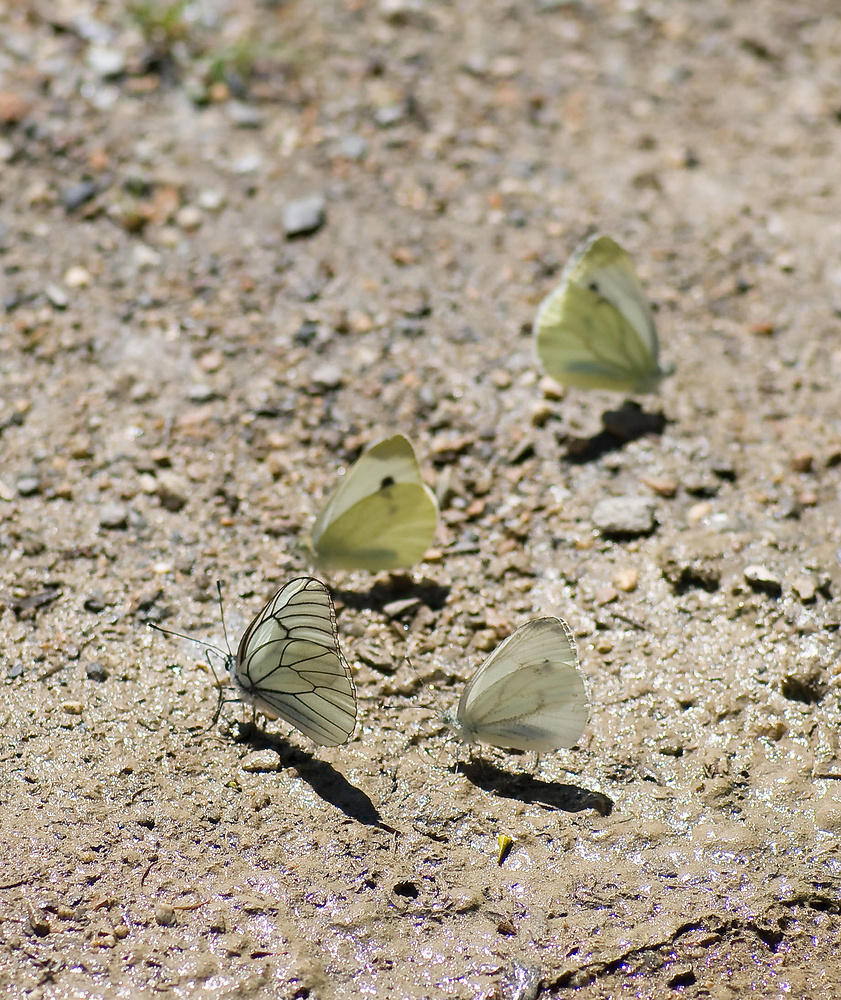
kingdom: Animalia
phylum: Arthropoda
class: Insecta
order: Lepidoptera
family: Pieridae
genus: Aporia
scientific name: Aporia crataegi
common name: Black-veined white
